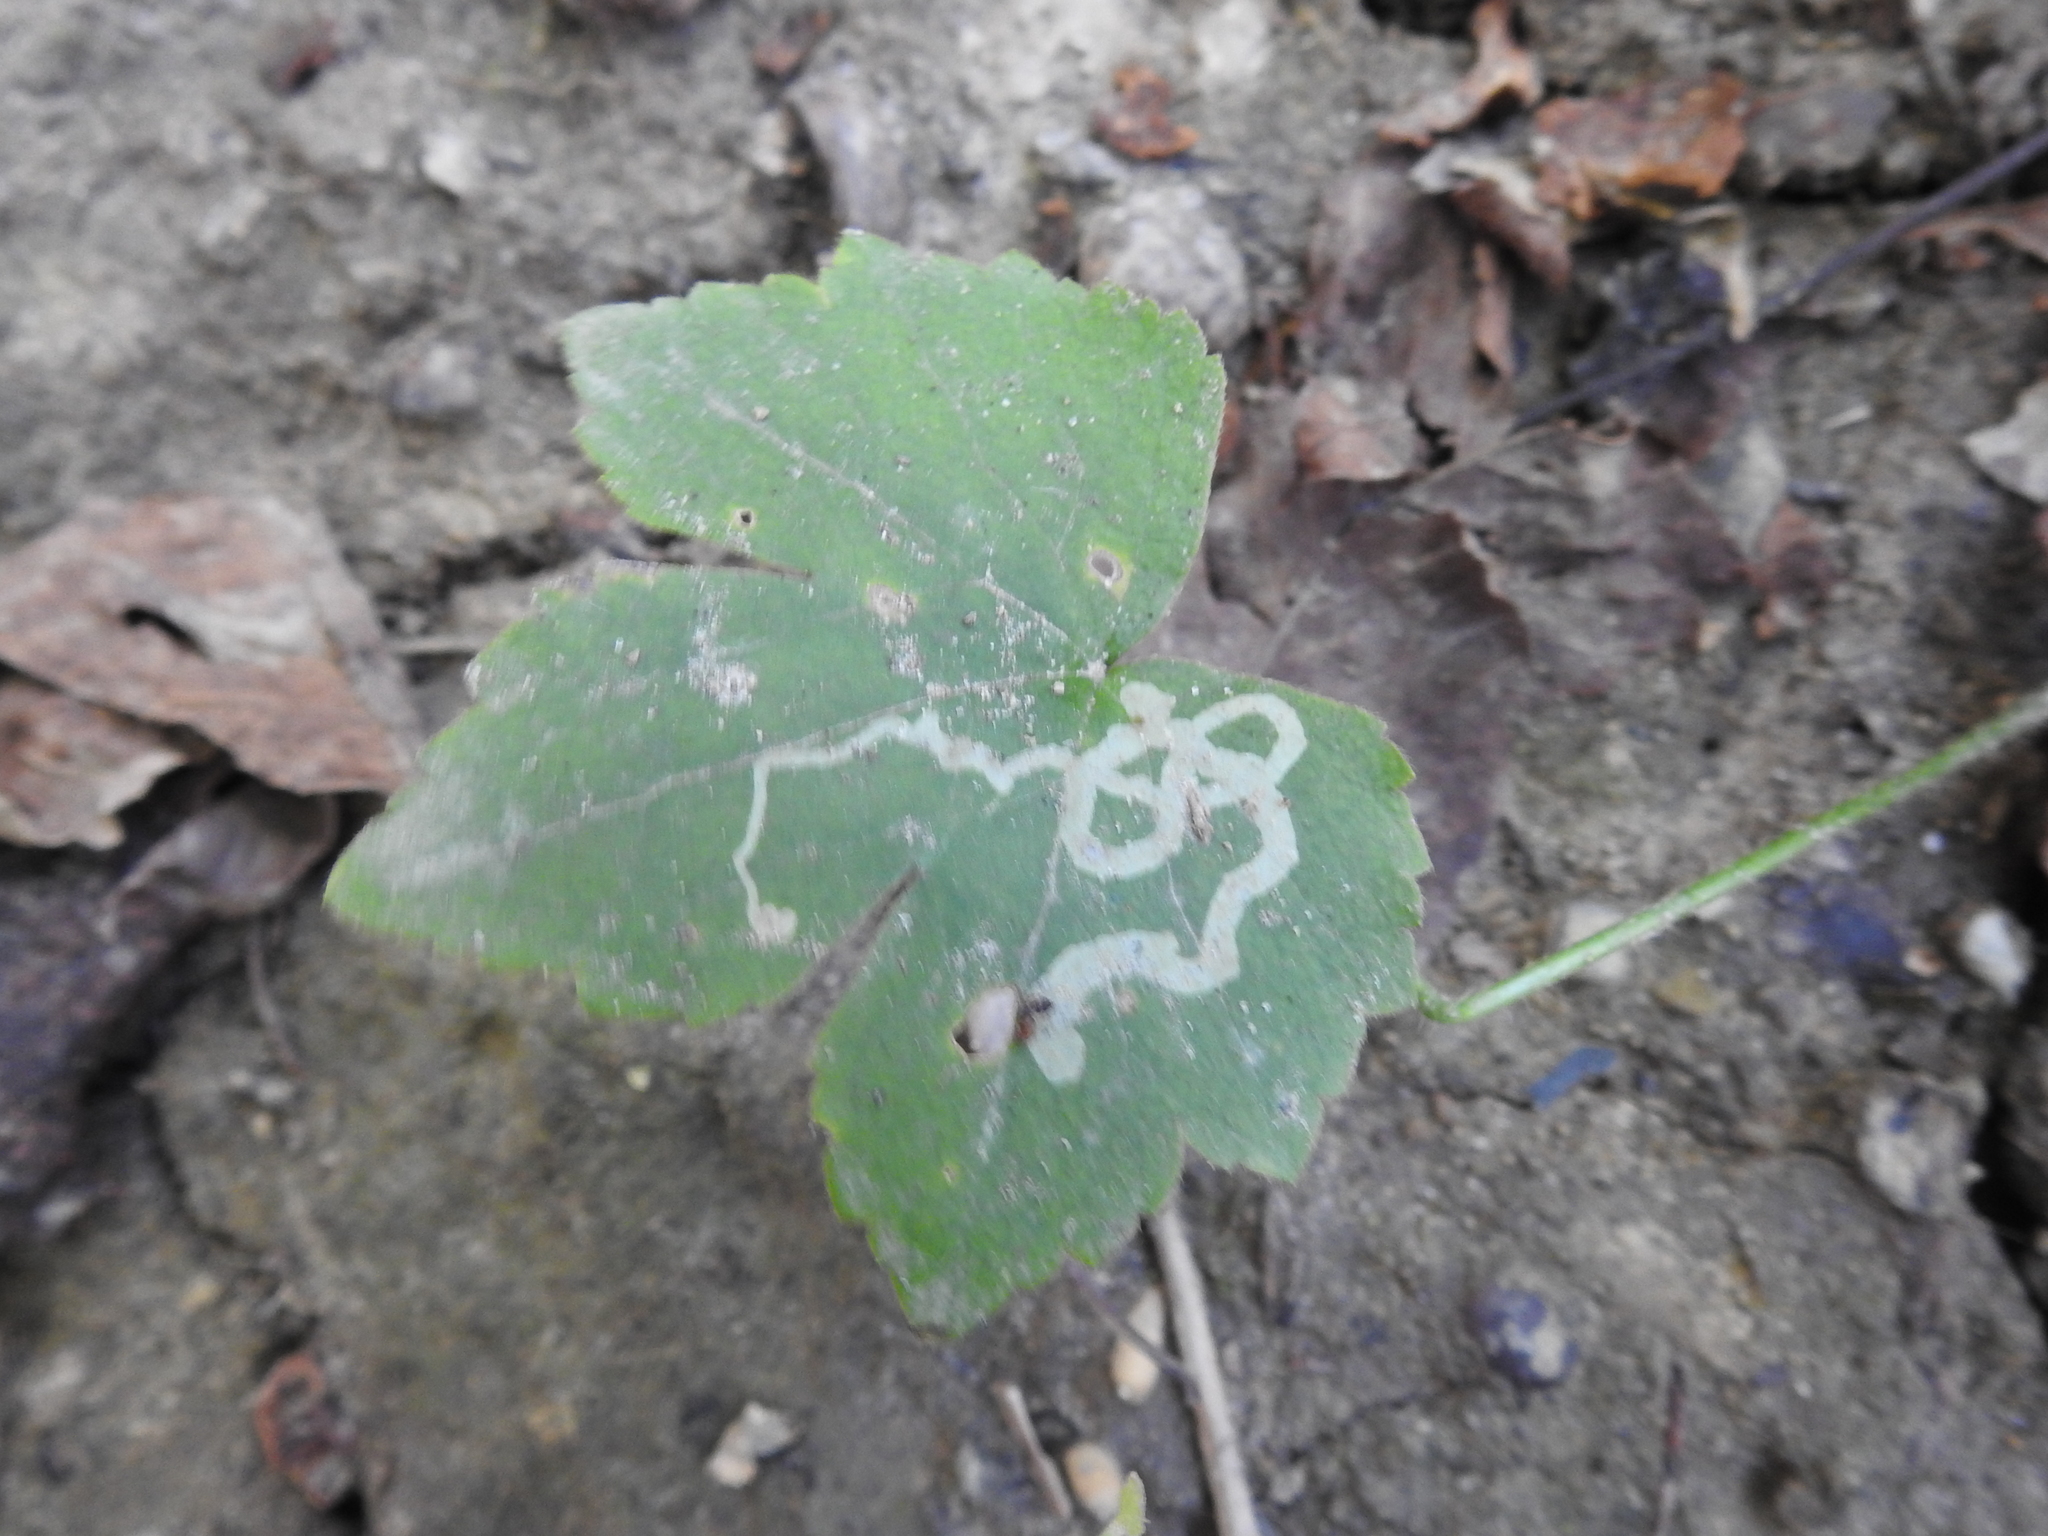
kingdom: Animalia
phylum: Arthropoda
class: Insecta
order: Diptera
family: Agromyzidae
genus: Phytomyza
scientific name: Phytomyza loewii
